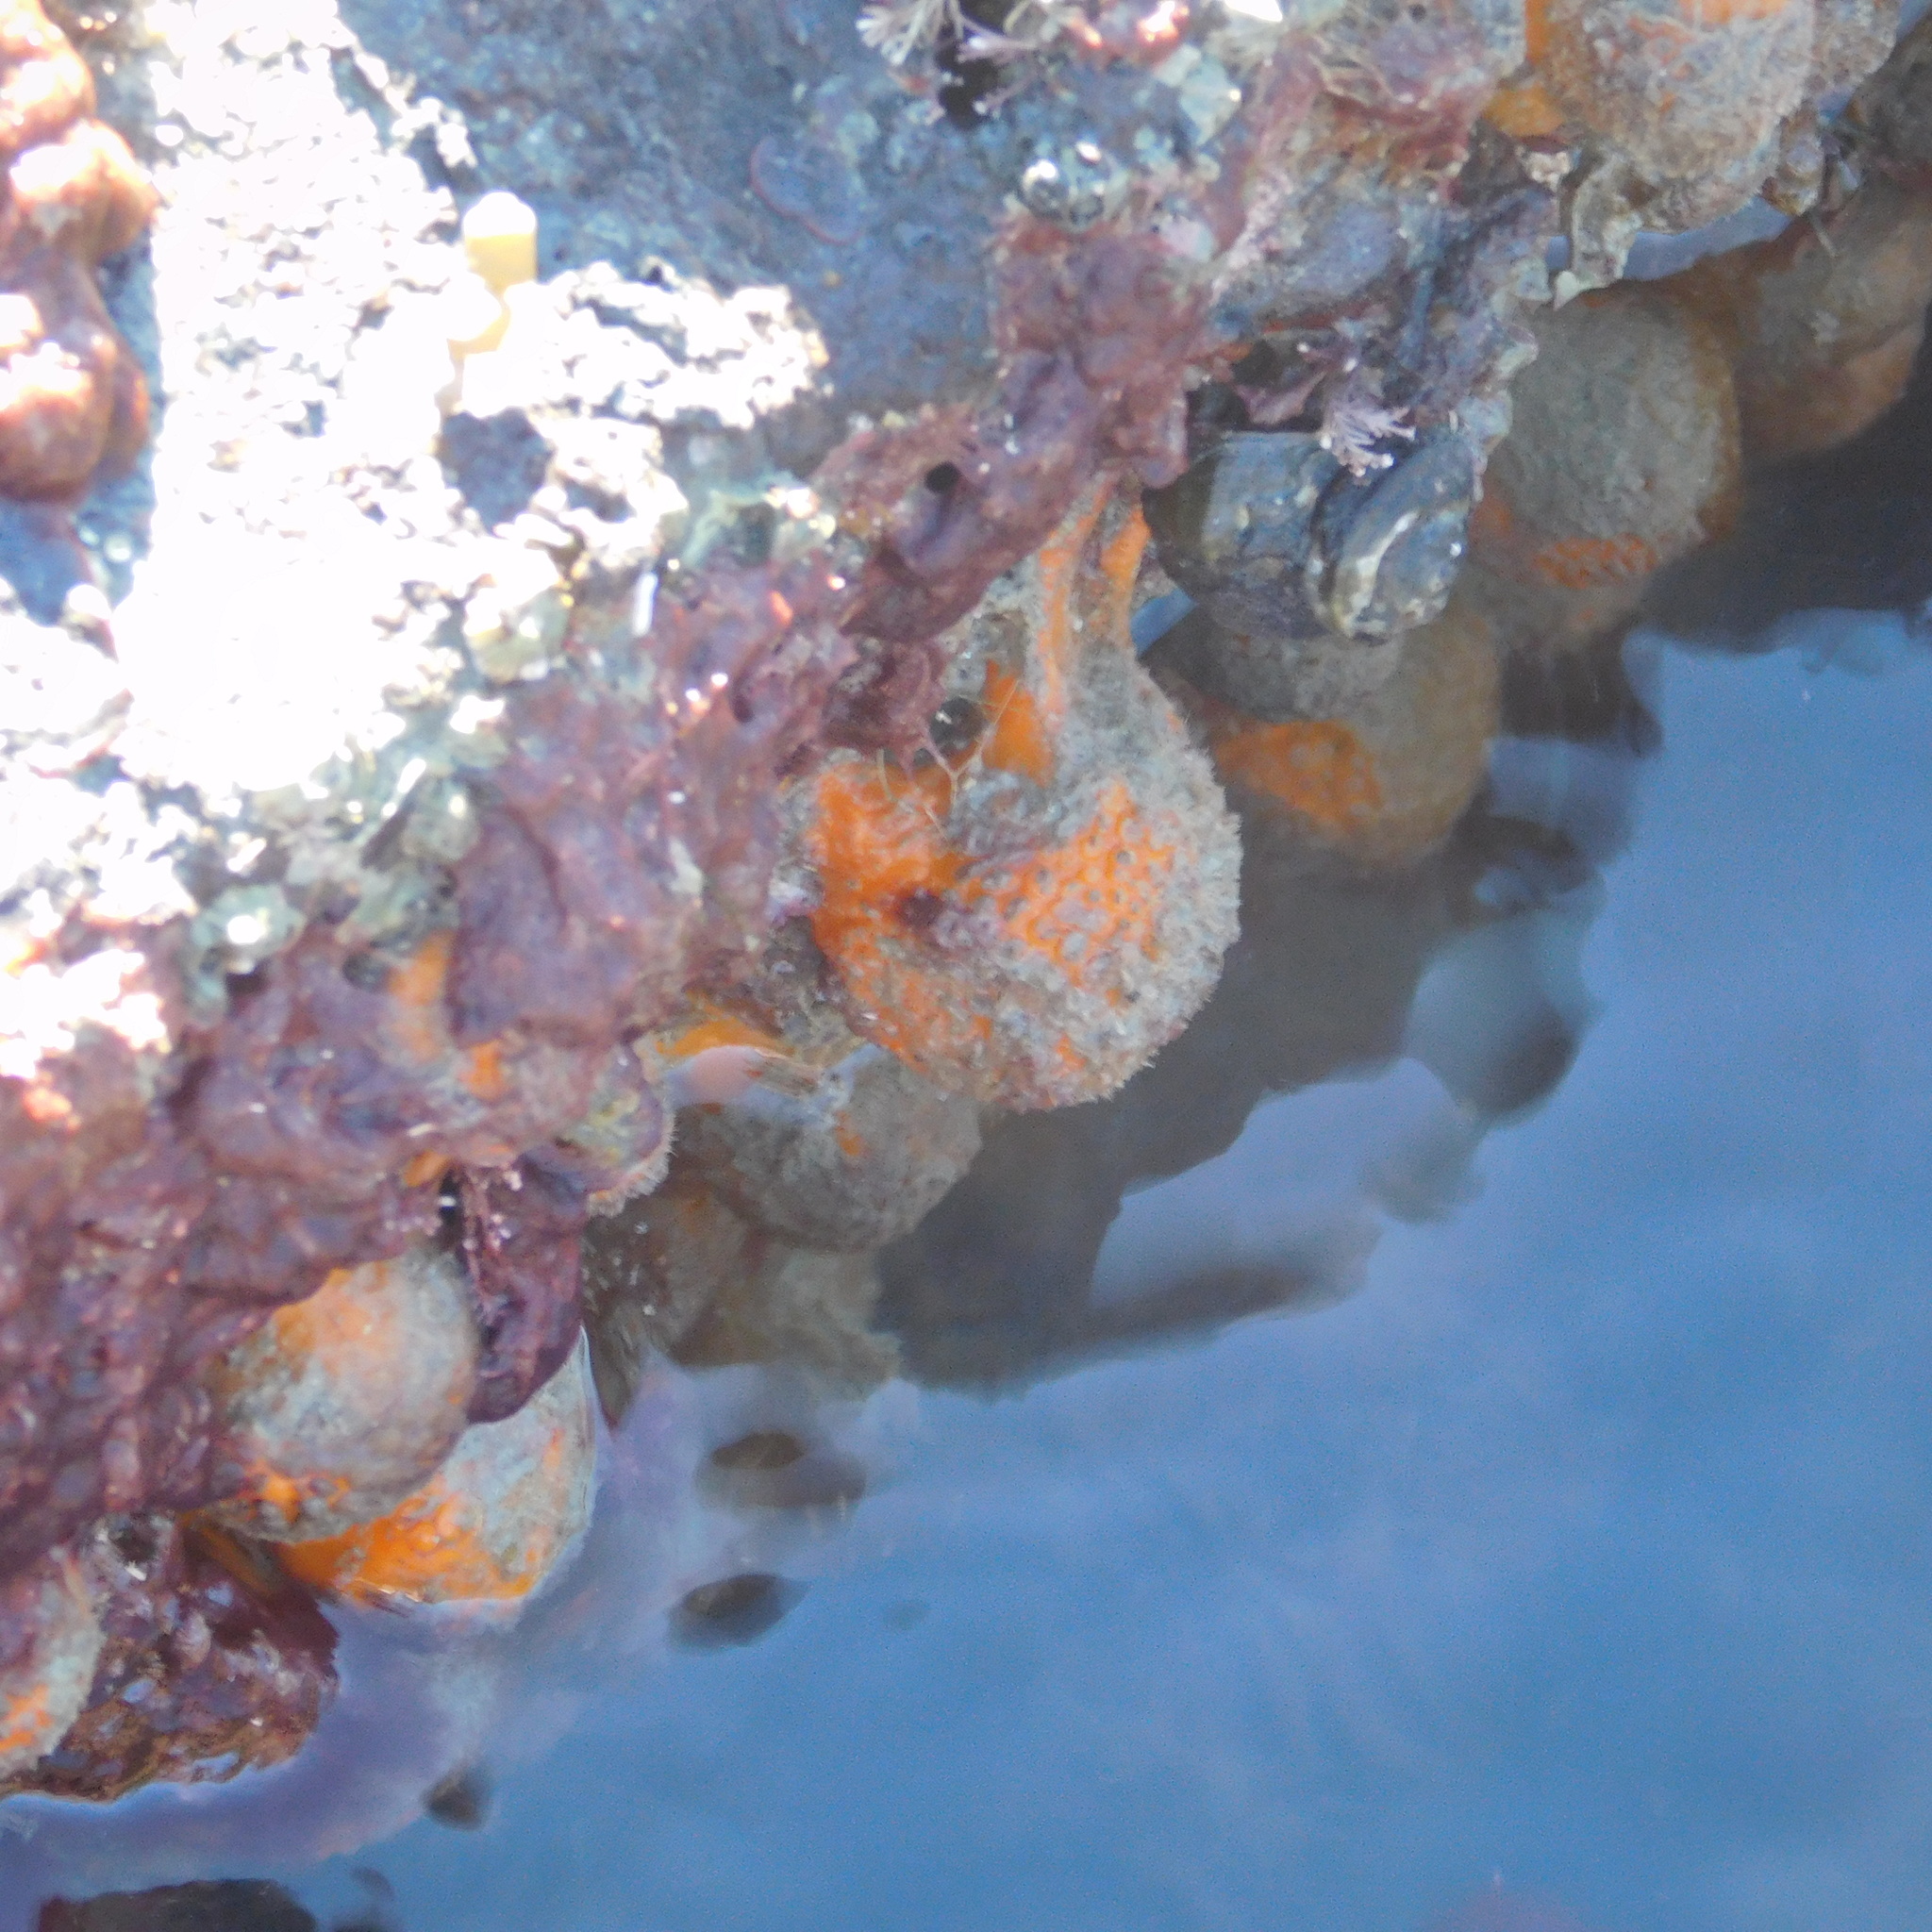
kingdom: Animalia
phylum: Porifera
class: Demospongiae
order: Tethyida
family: Tethyidae
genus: Tethya
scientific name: Tethya burtoni
